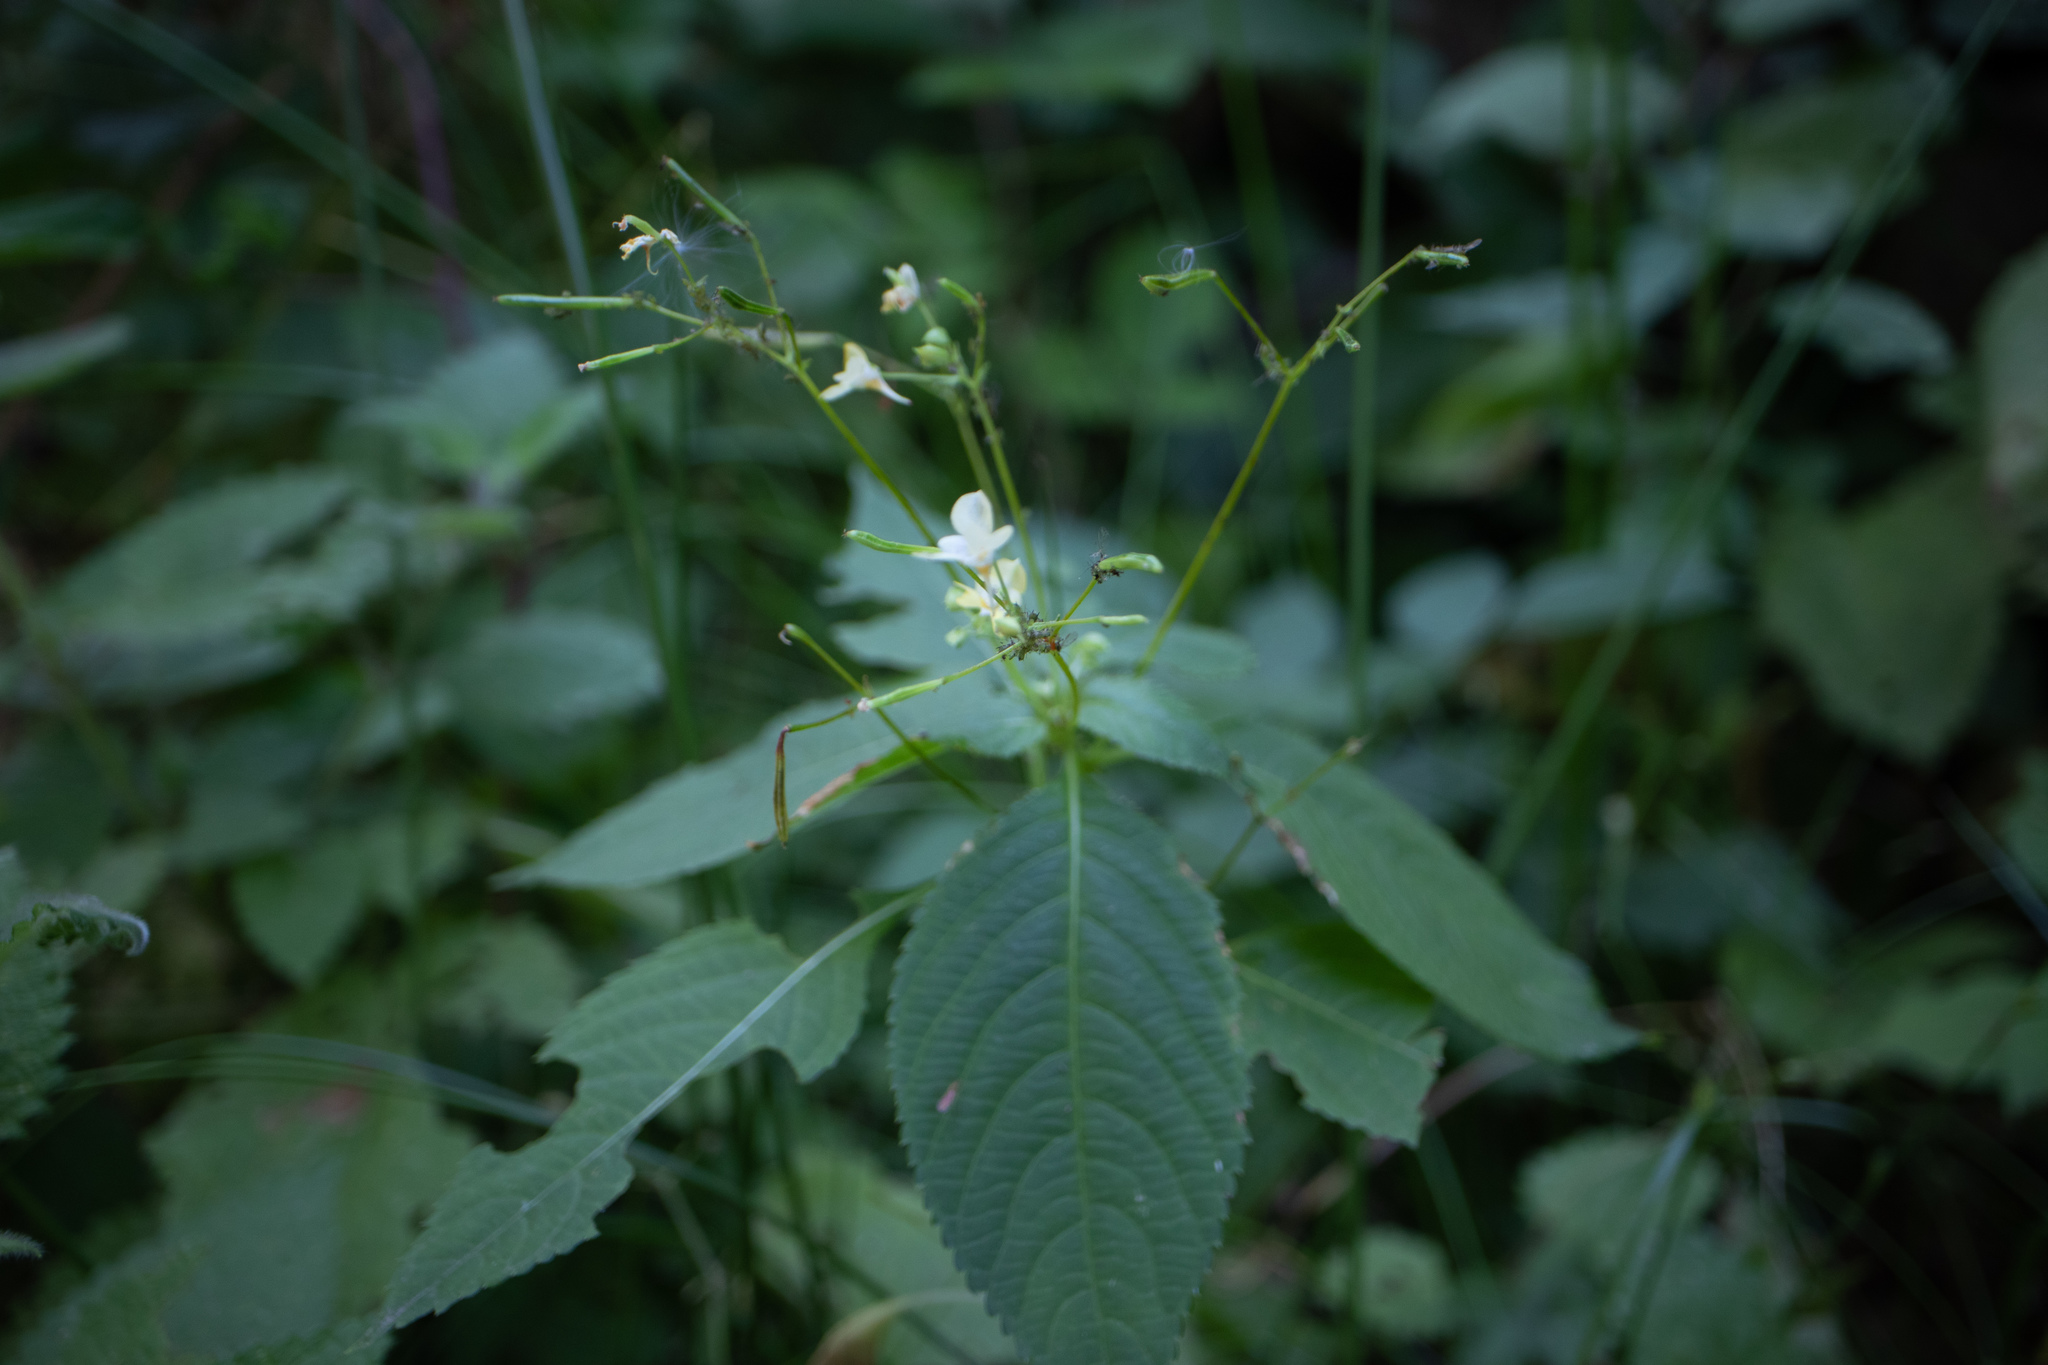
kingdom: Plantae
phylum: Tracheophyta
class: Magnoliopsida
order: Ericales
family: Balsaminaceae
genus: Impatiens
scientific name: Impatiens parviflora
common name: Small balsam
